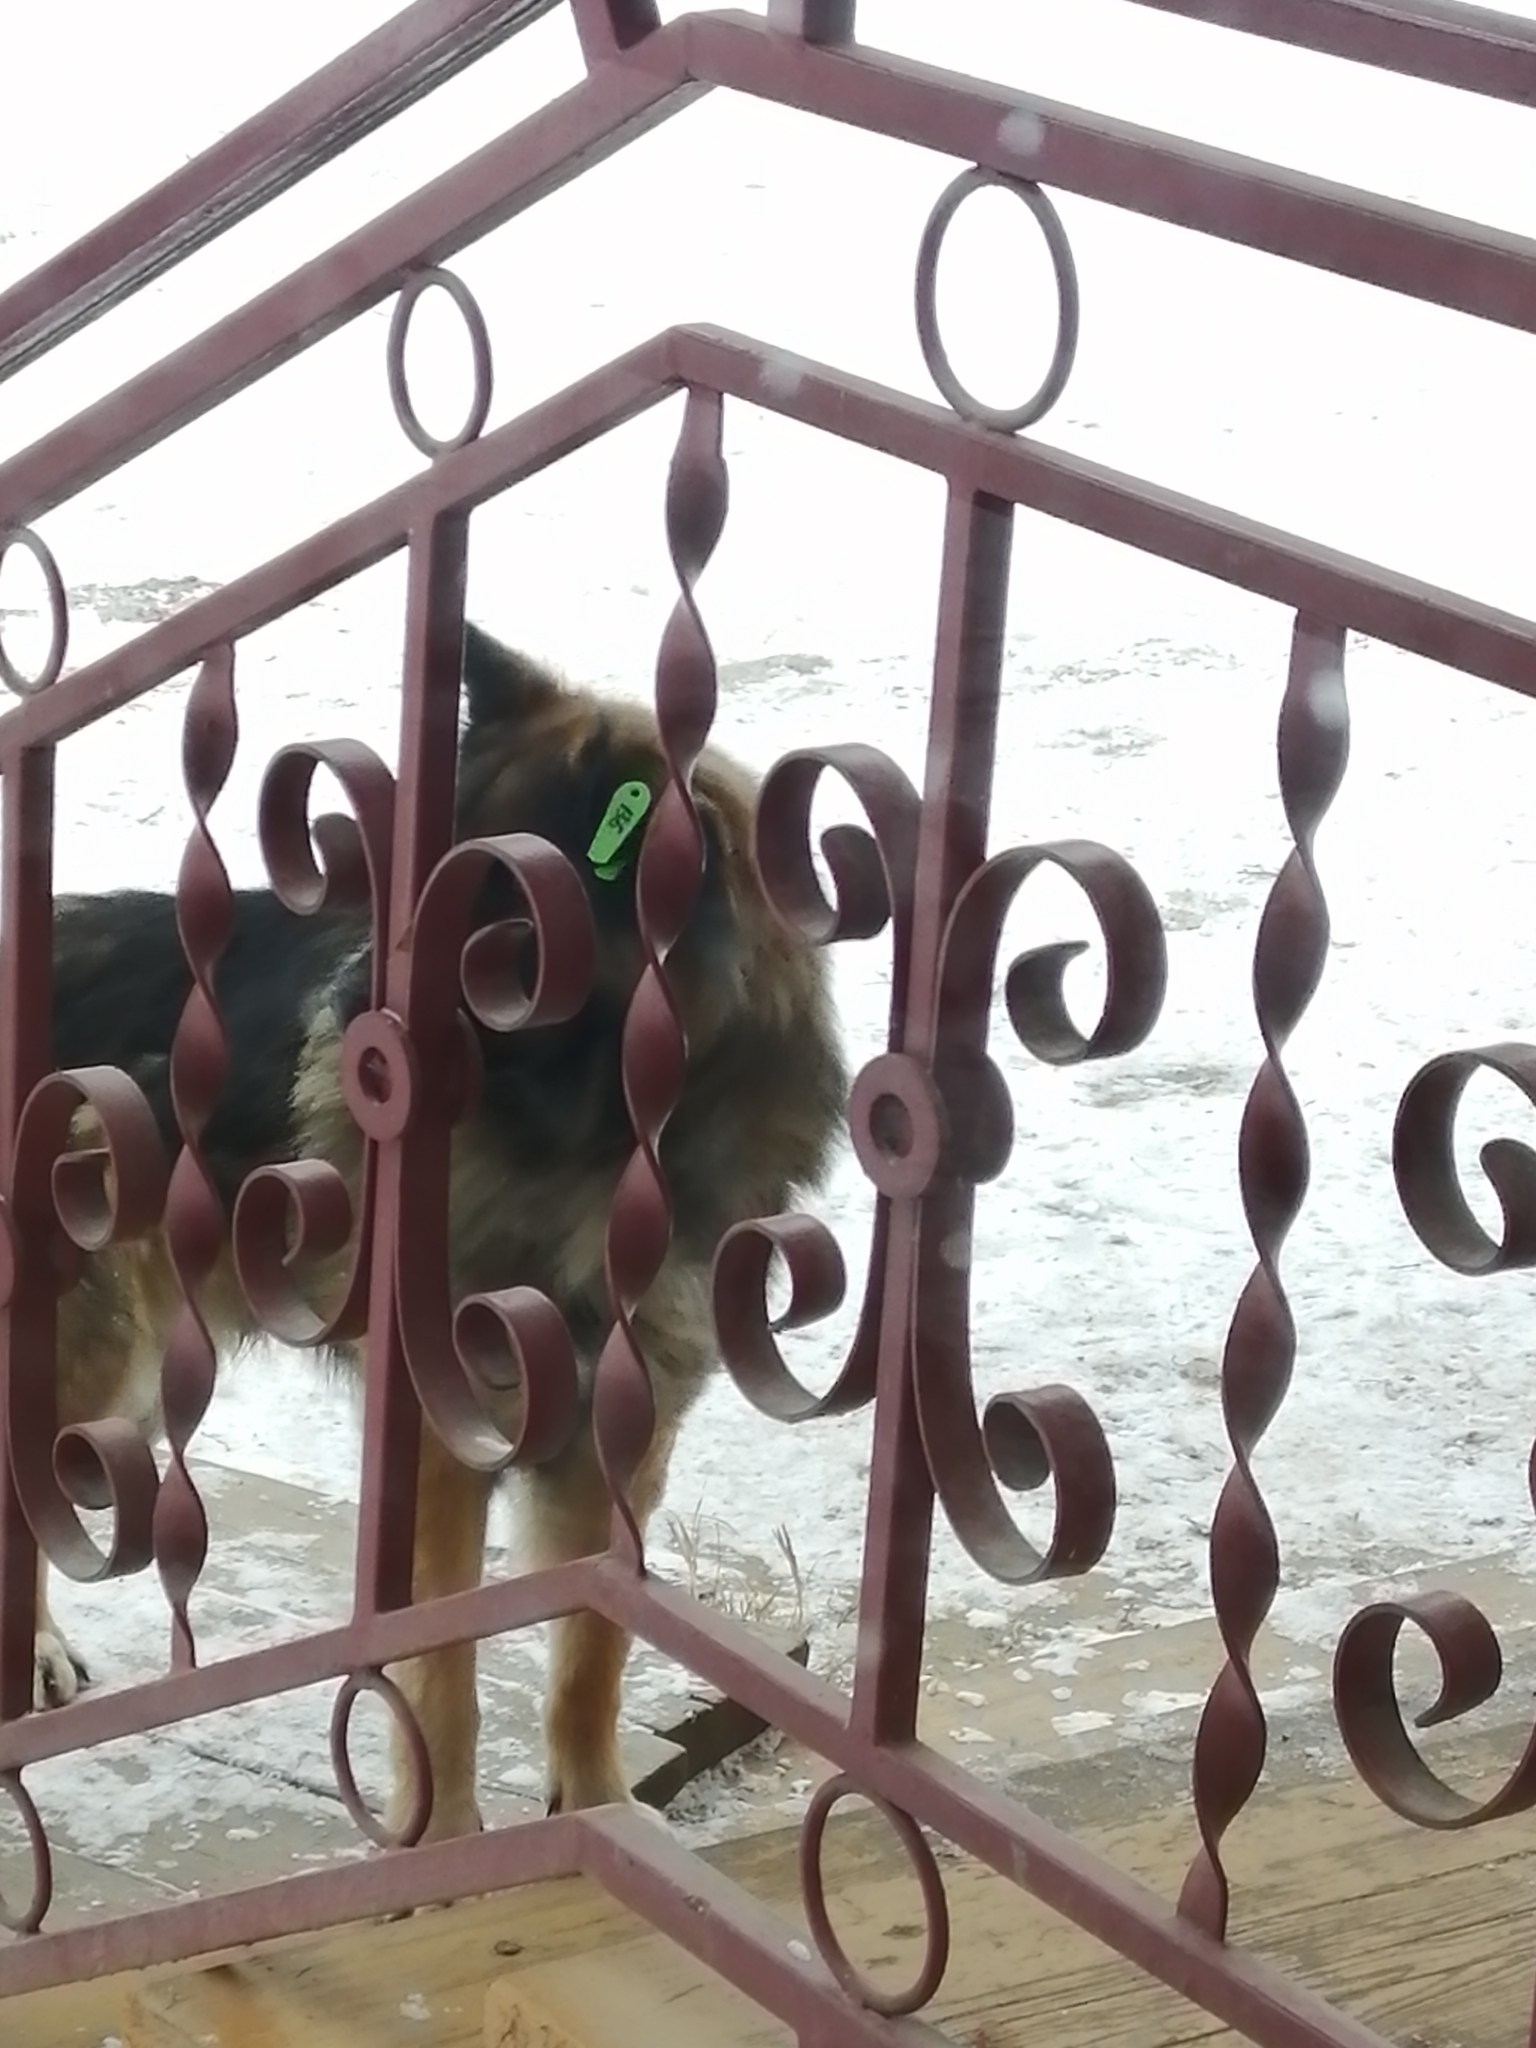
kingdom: Animalia
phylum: Chordata
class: Mammalia
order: Carnivora
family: Canidae
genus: Canis
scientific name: Canis lupus
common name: Gray wolf
